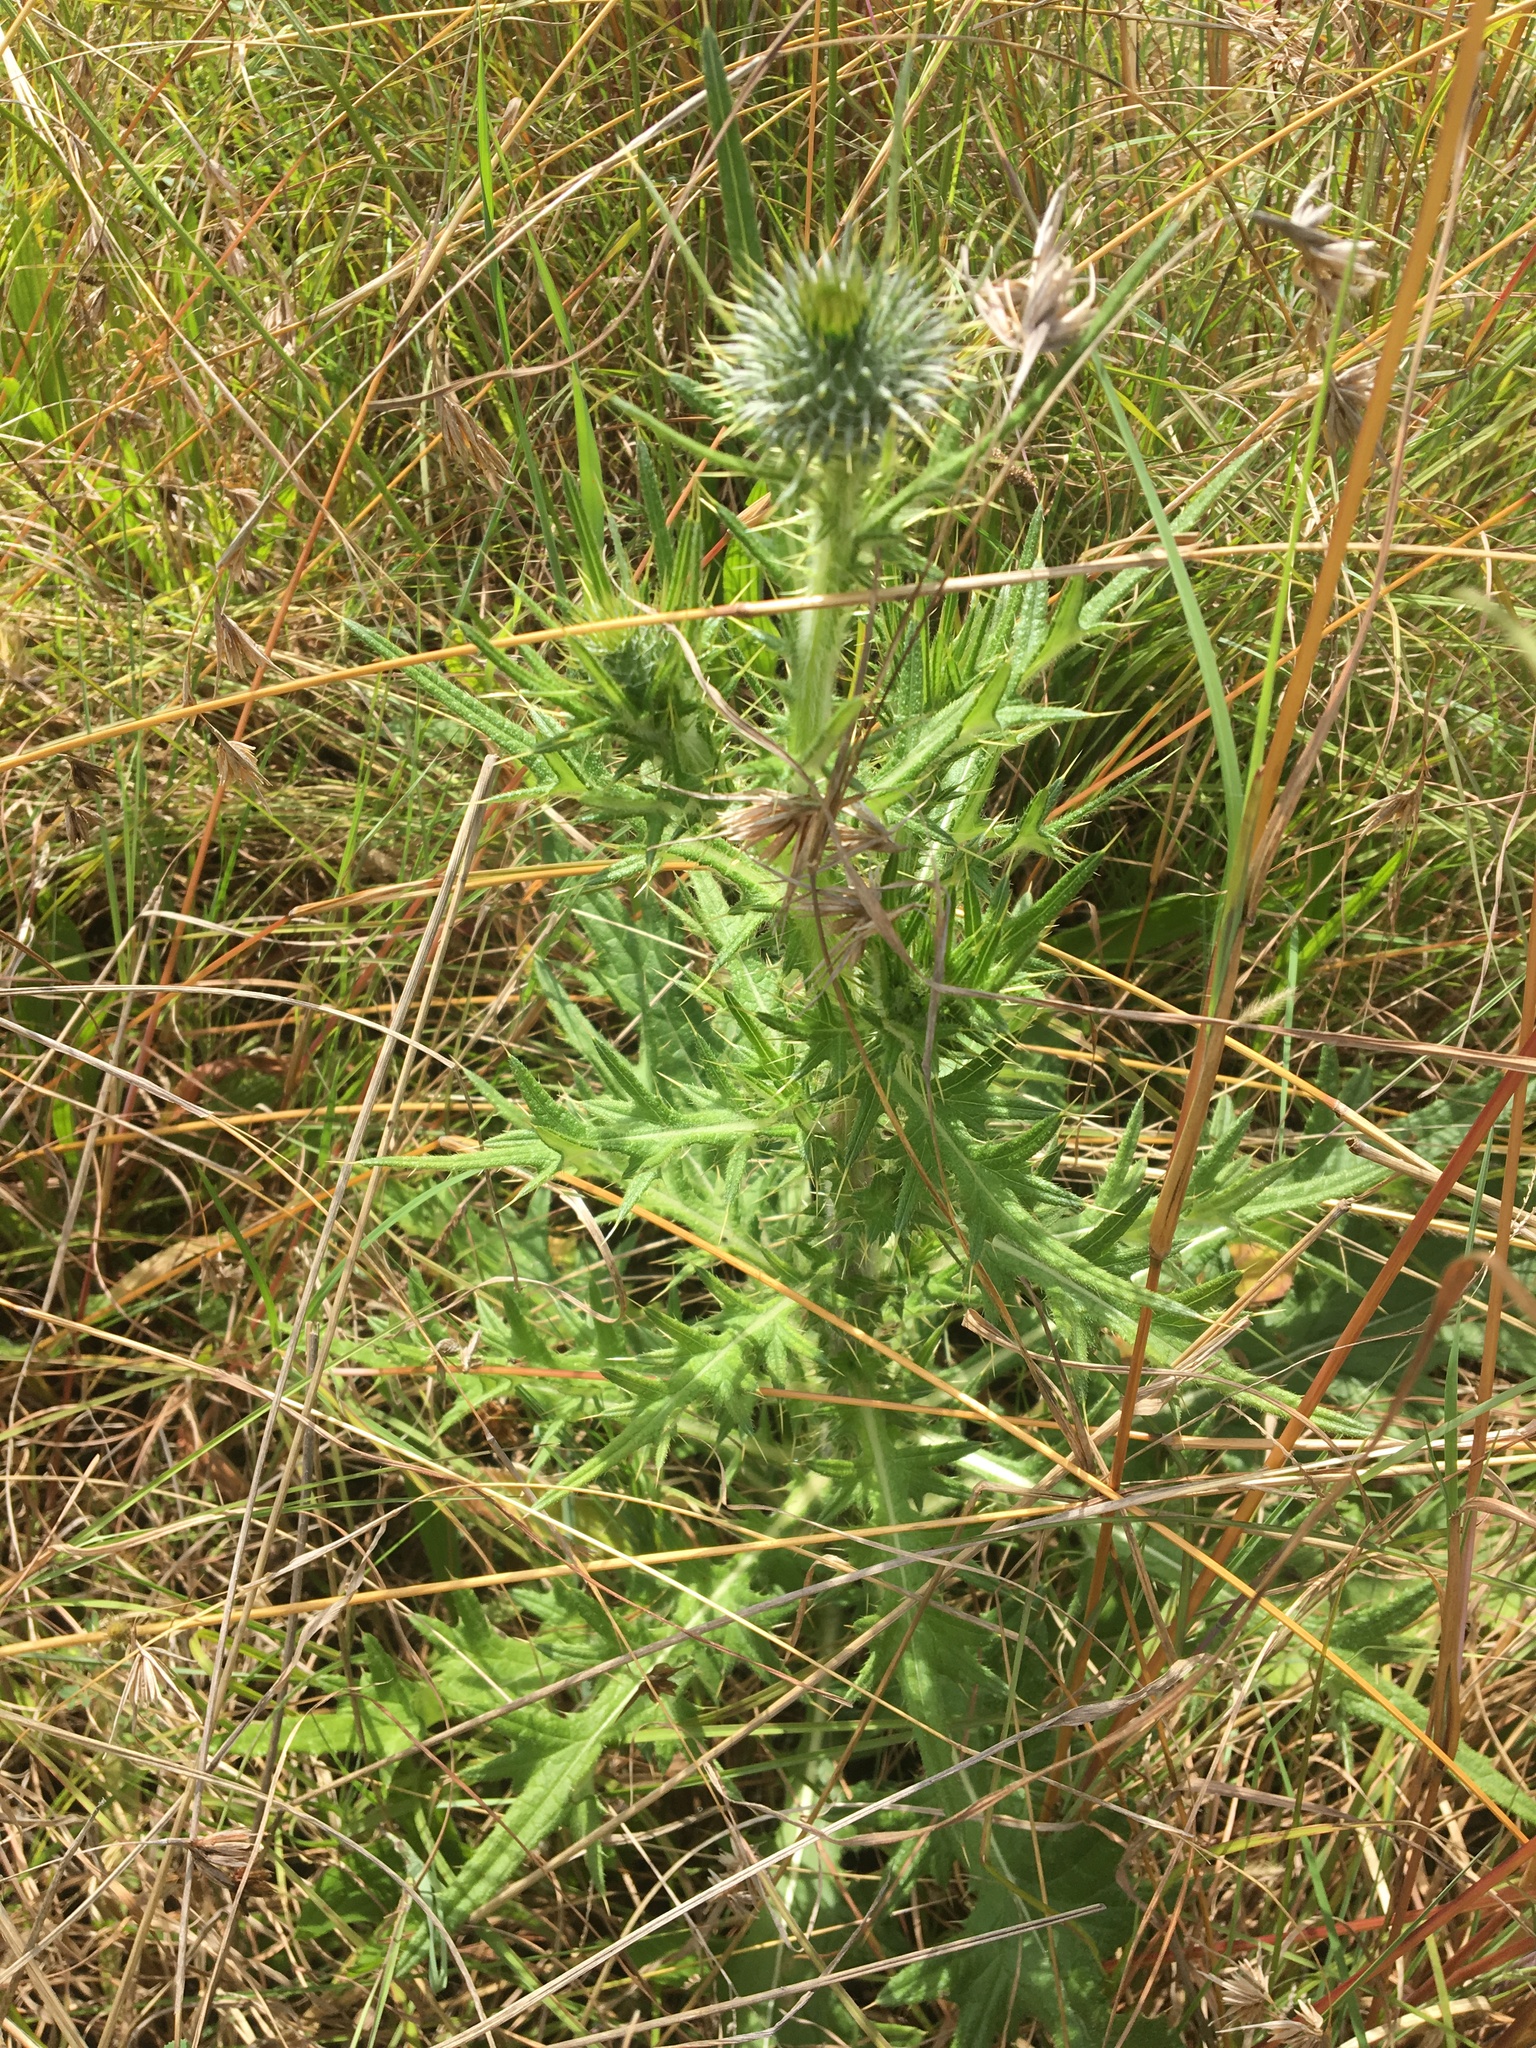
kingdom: Plantae
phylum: Tracheophyta
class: Magnoliopsida
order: Asterales
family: Asteraceae
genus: Cirsium
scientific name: Cirsium vulgare
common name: Bull thistle
